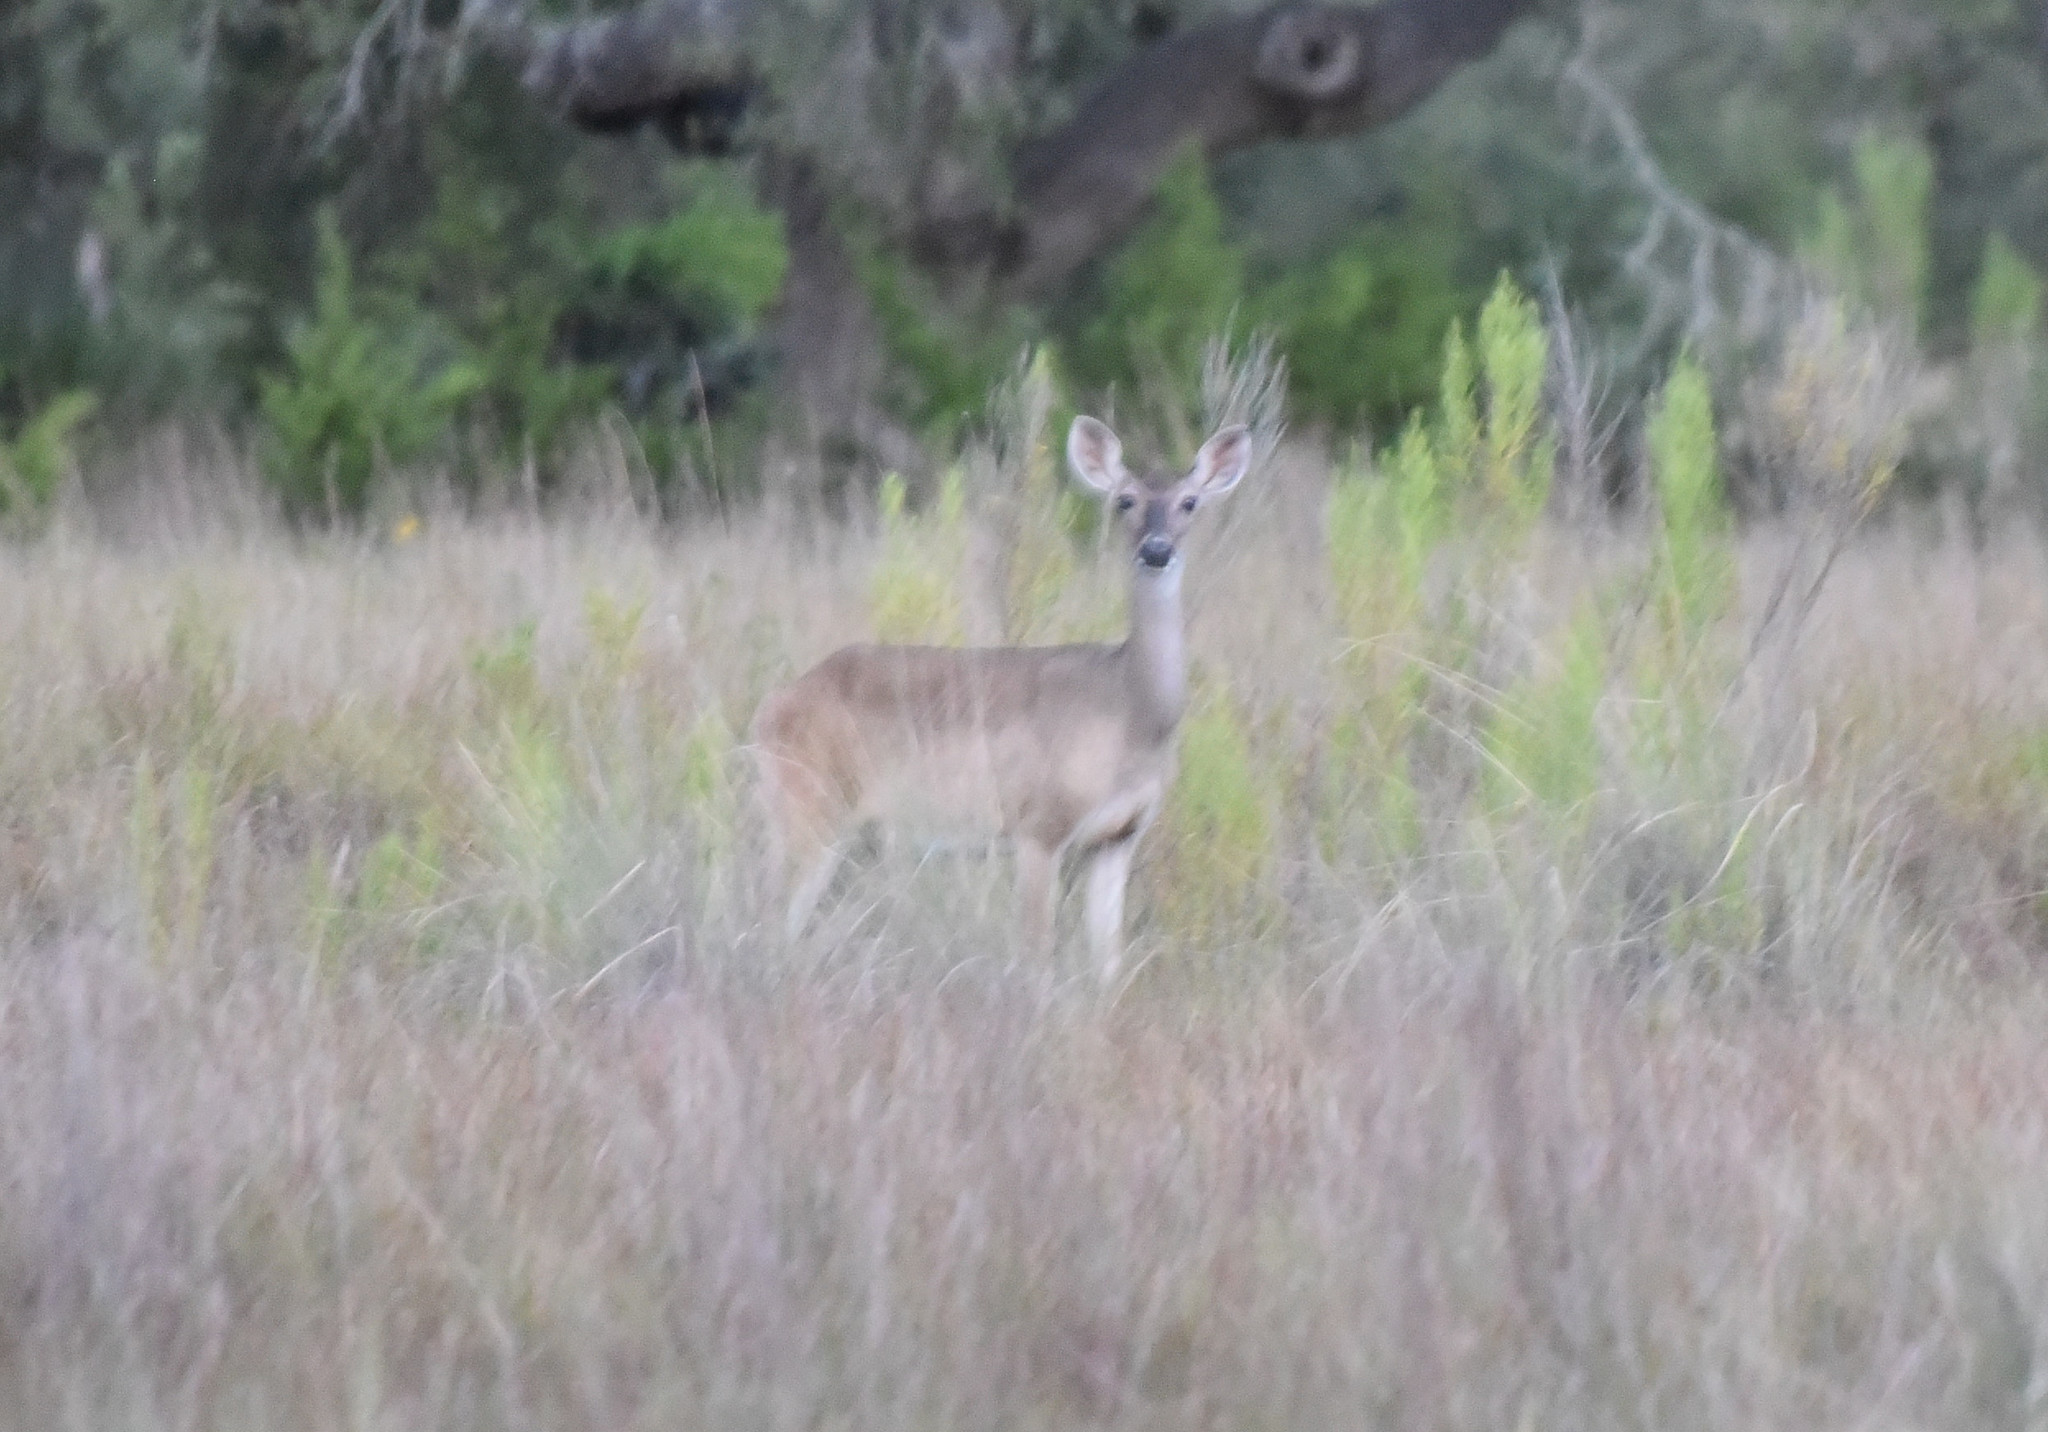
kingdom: Animalia
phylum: Chordata
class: Mammalia
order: Artiodactyla
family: Cervidae
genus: Odocoileus
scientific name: Odocoileus virginianus
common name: White-tailed deer
